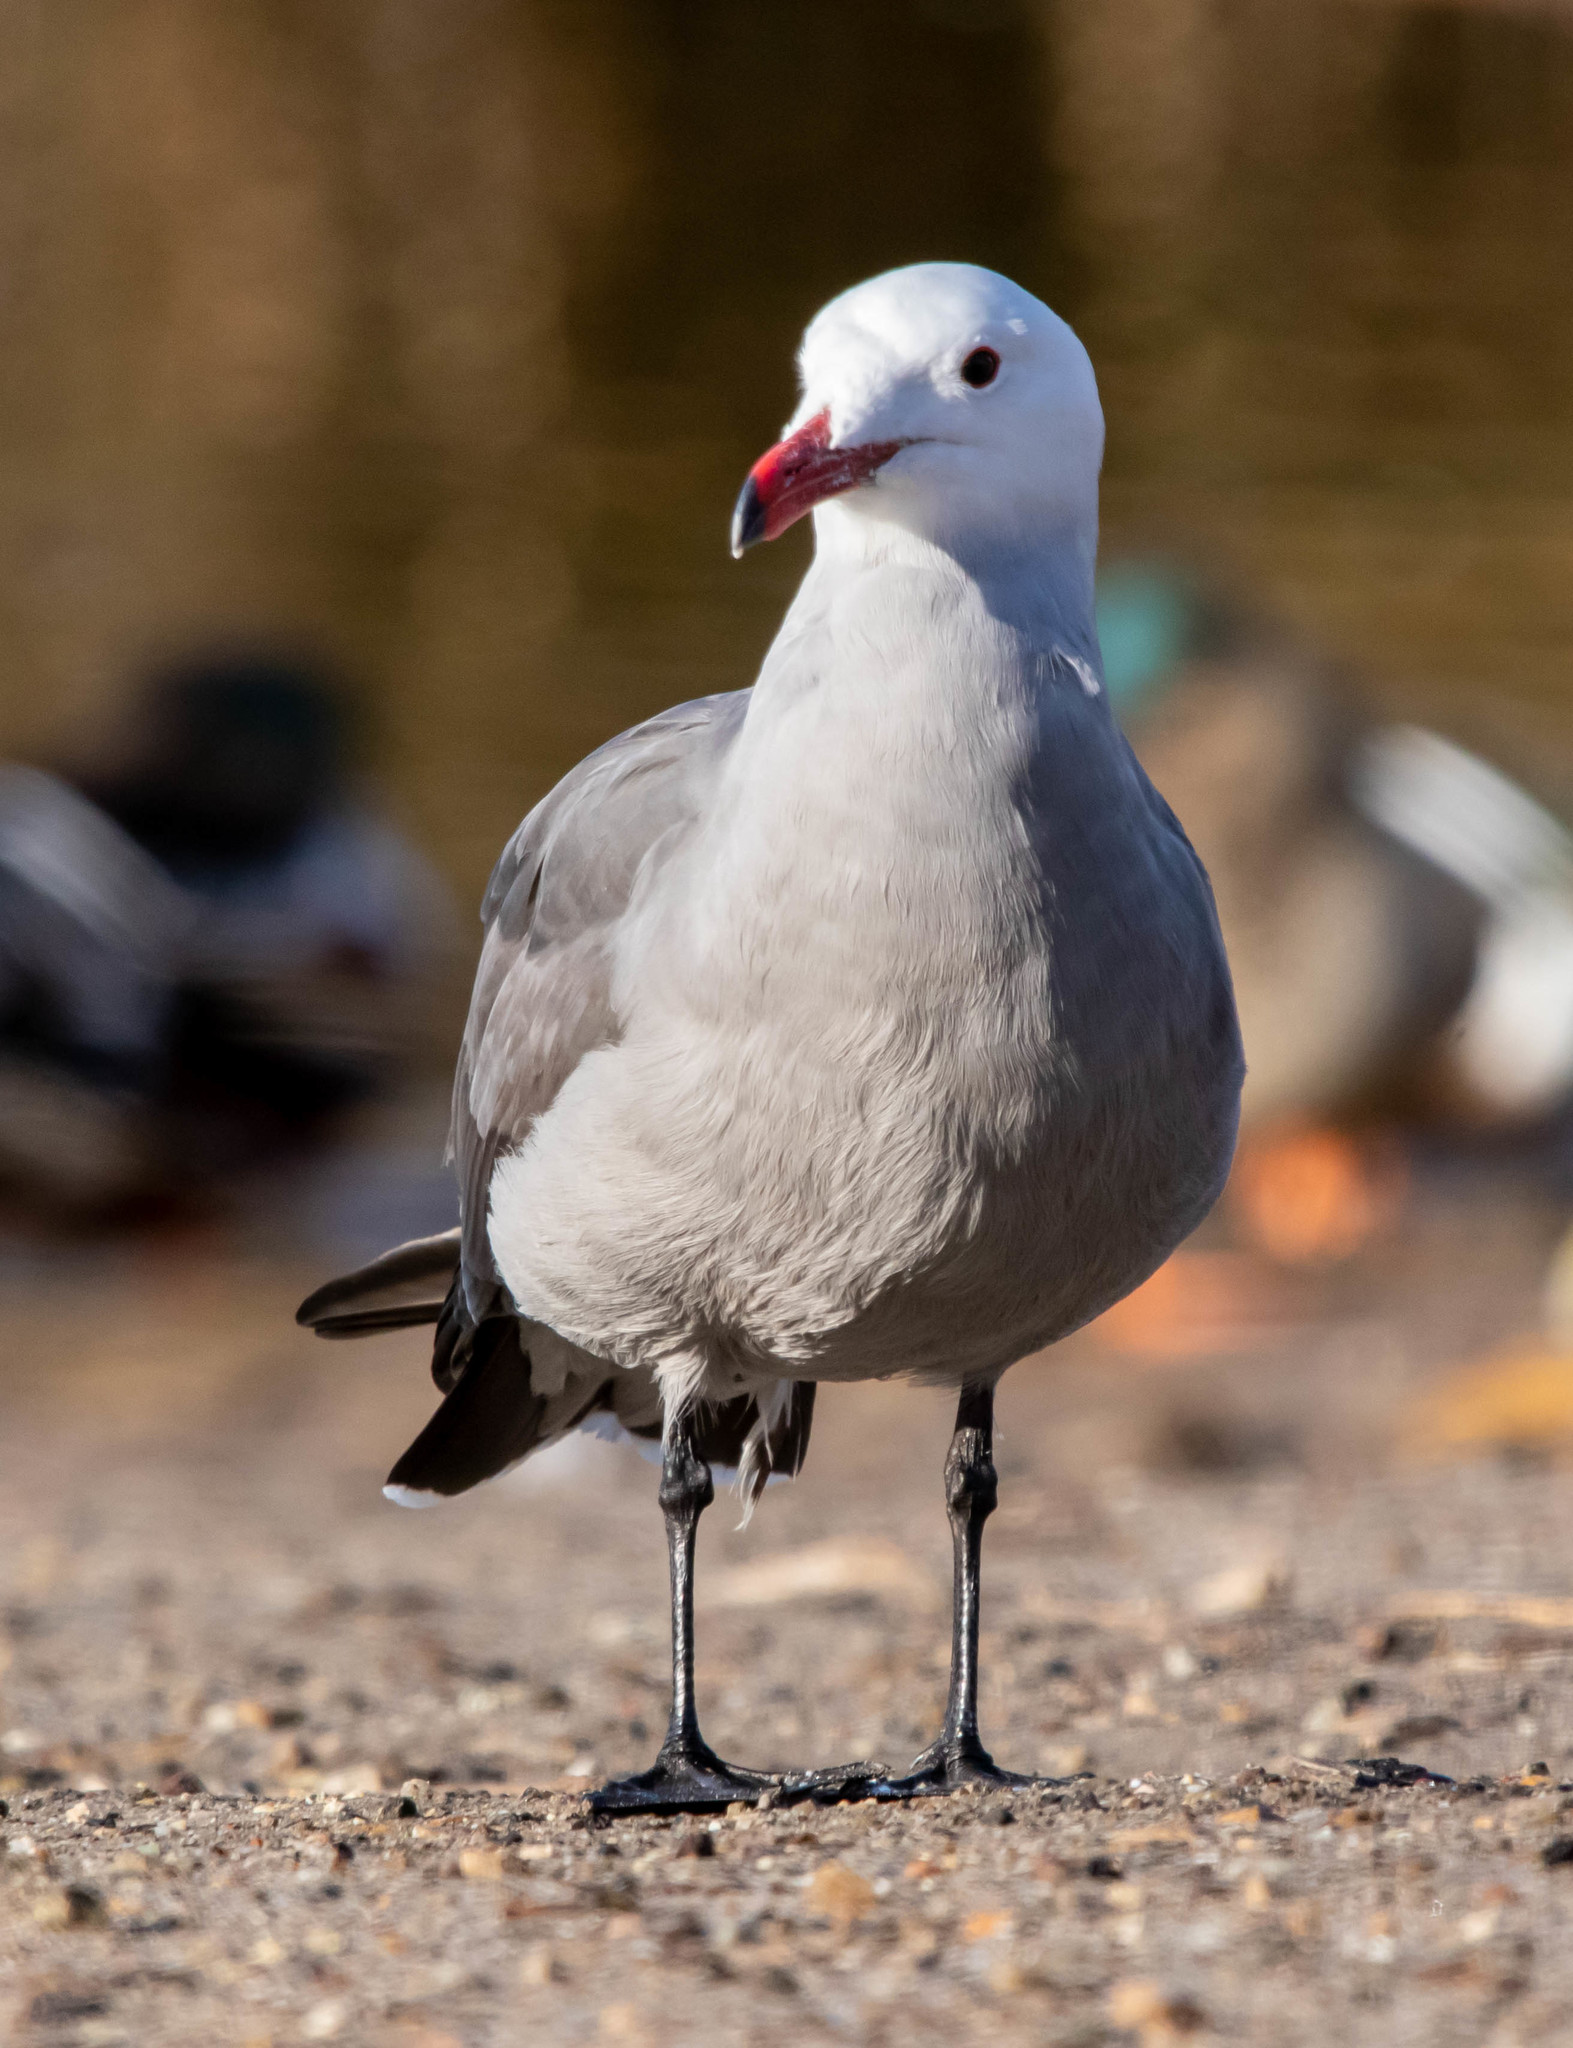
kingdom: Animalia
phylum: Chordata
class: Aves
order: Charadriiformes
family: Laridae
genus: Larus
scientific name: Larus heermanni
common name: Heermann's gull
